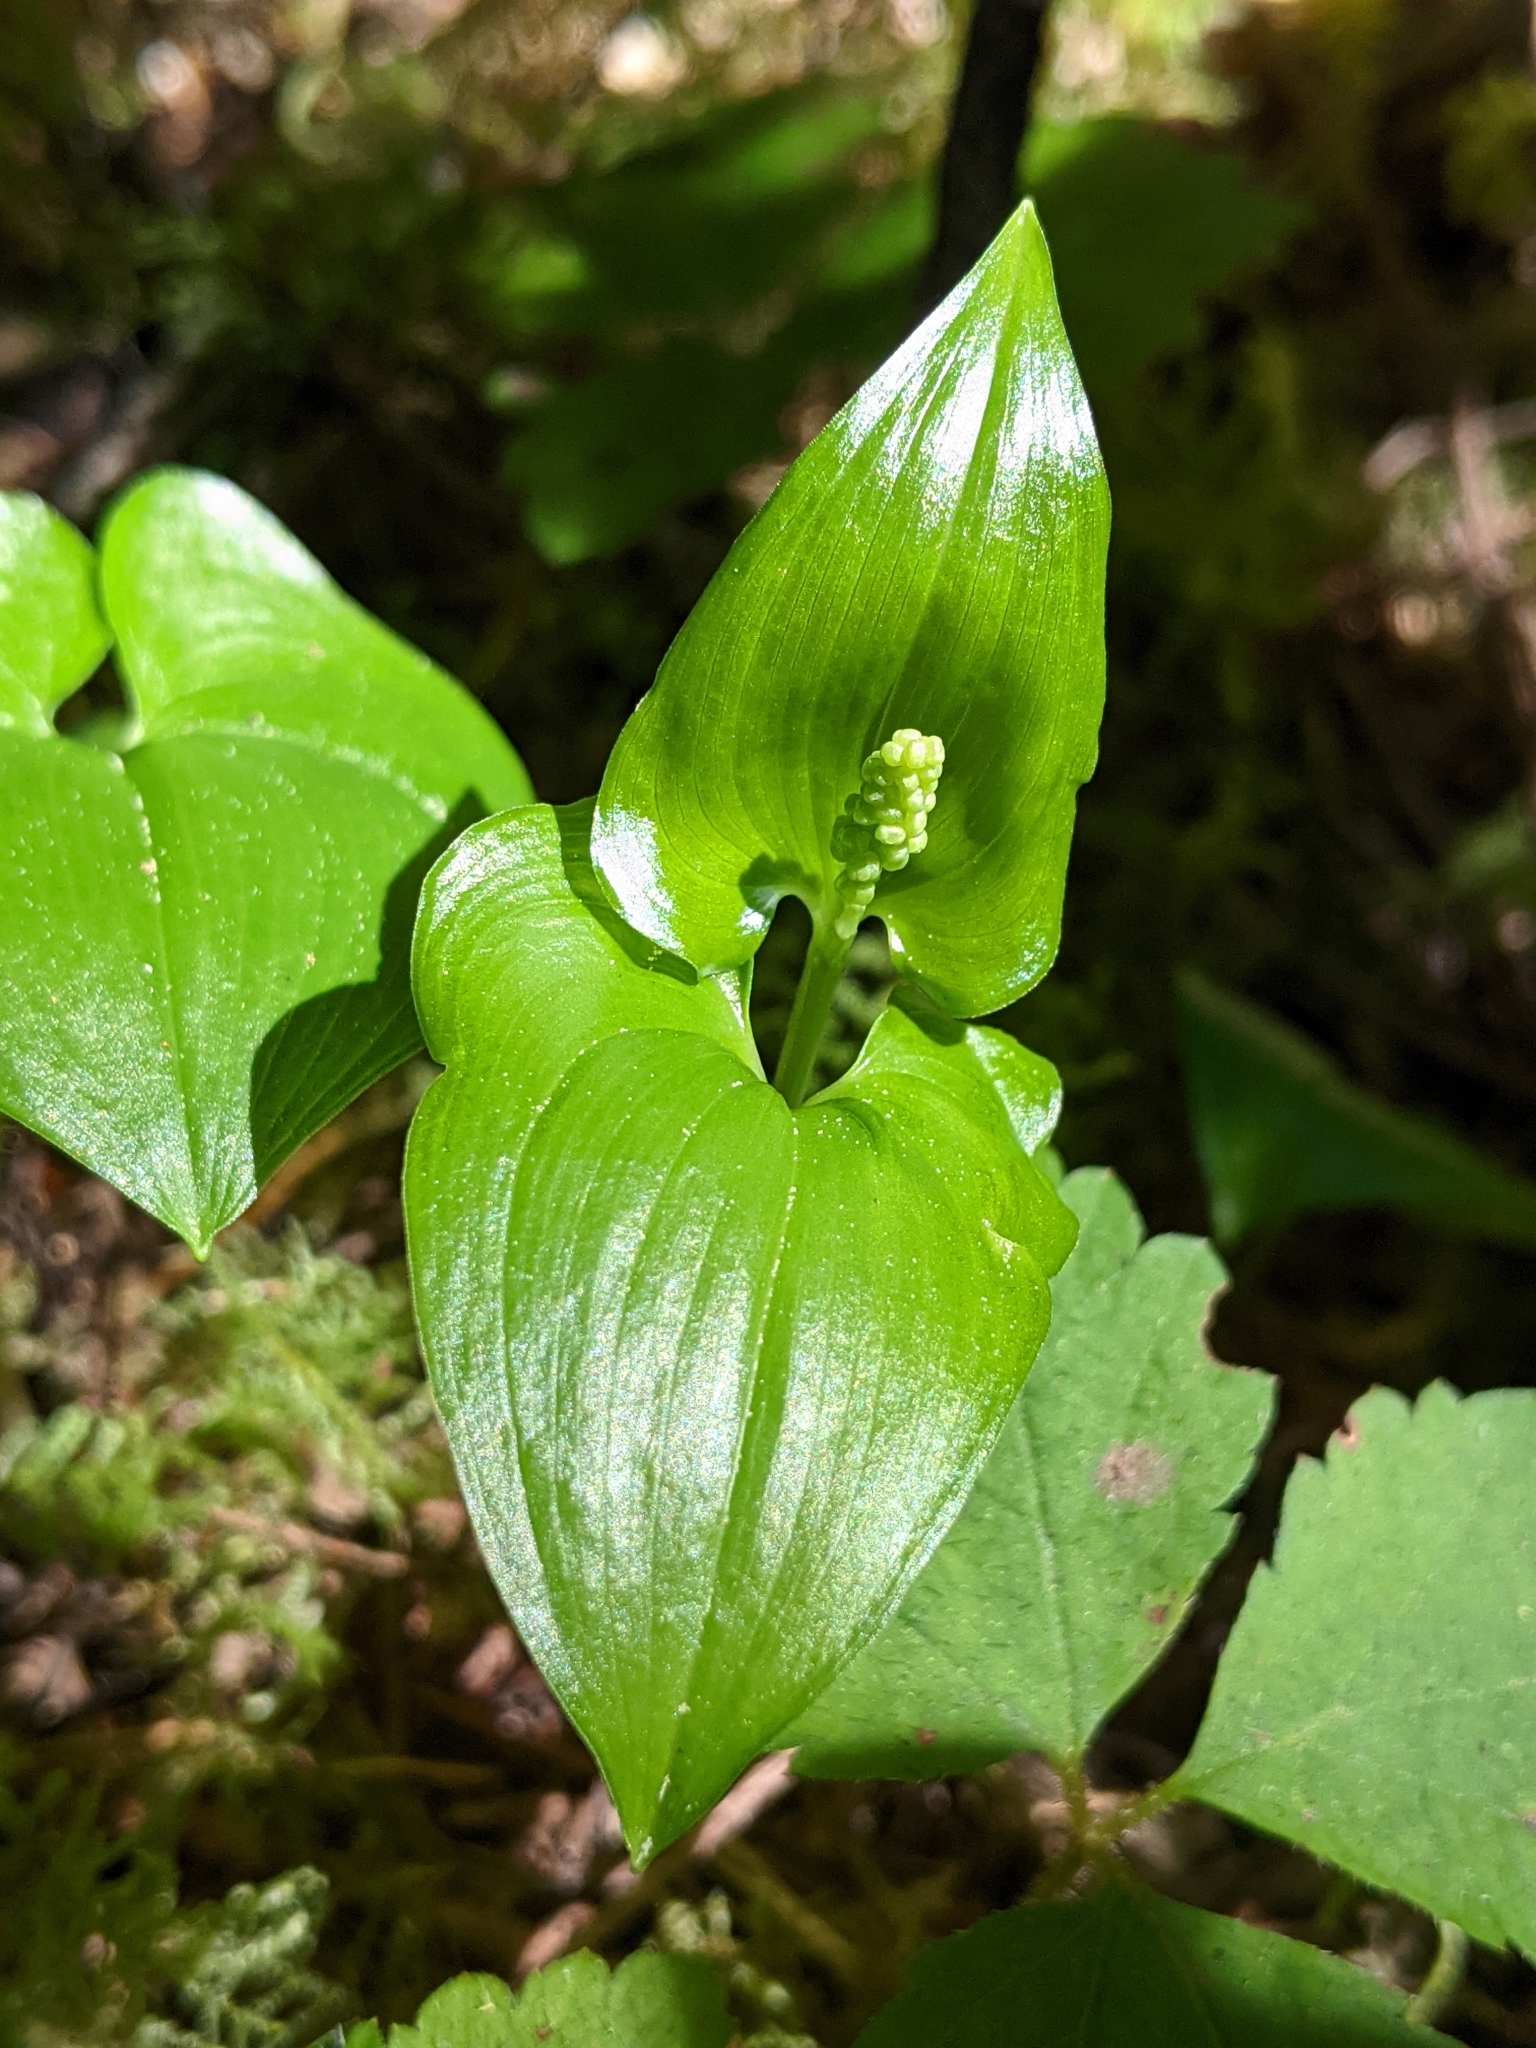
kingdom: Plantae
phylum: Tracheophyta
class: Liliopsida
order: Asparagales
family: Asparagaceae
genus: Maianthemum
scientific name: Maianthemum dilatatum
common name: False lily-of-the-valley
